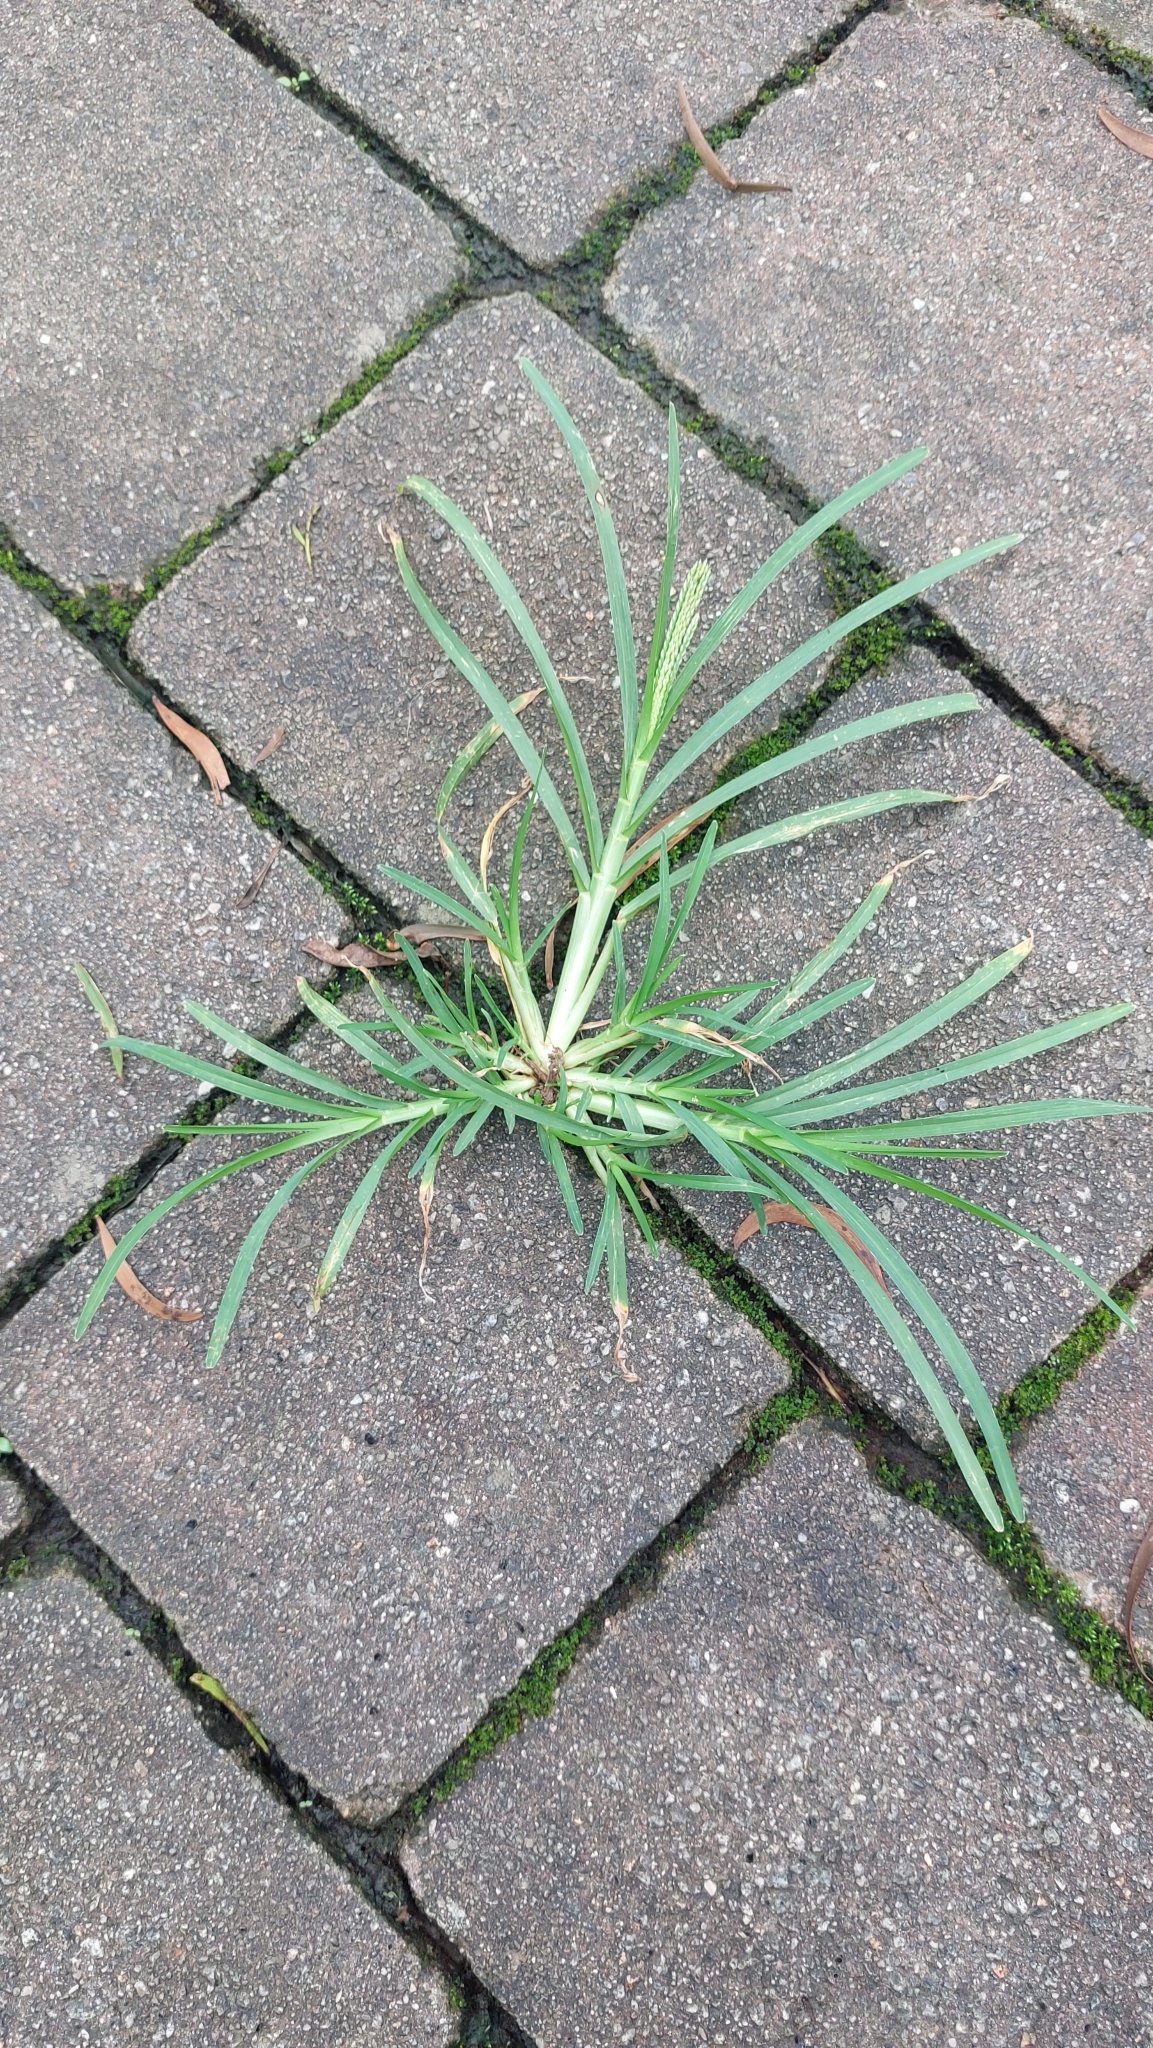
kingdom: Plantae
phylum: Tracheophyta
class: Liliopsida
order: Poales
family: Poaceae
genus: Eleusine
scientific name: Eleusine indica
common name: Yard-grass
